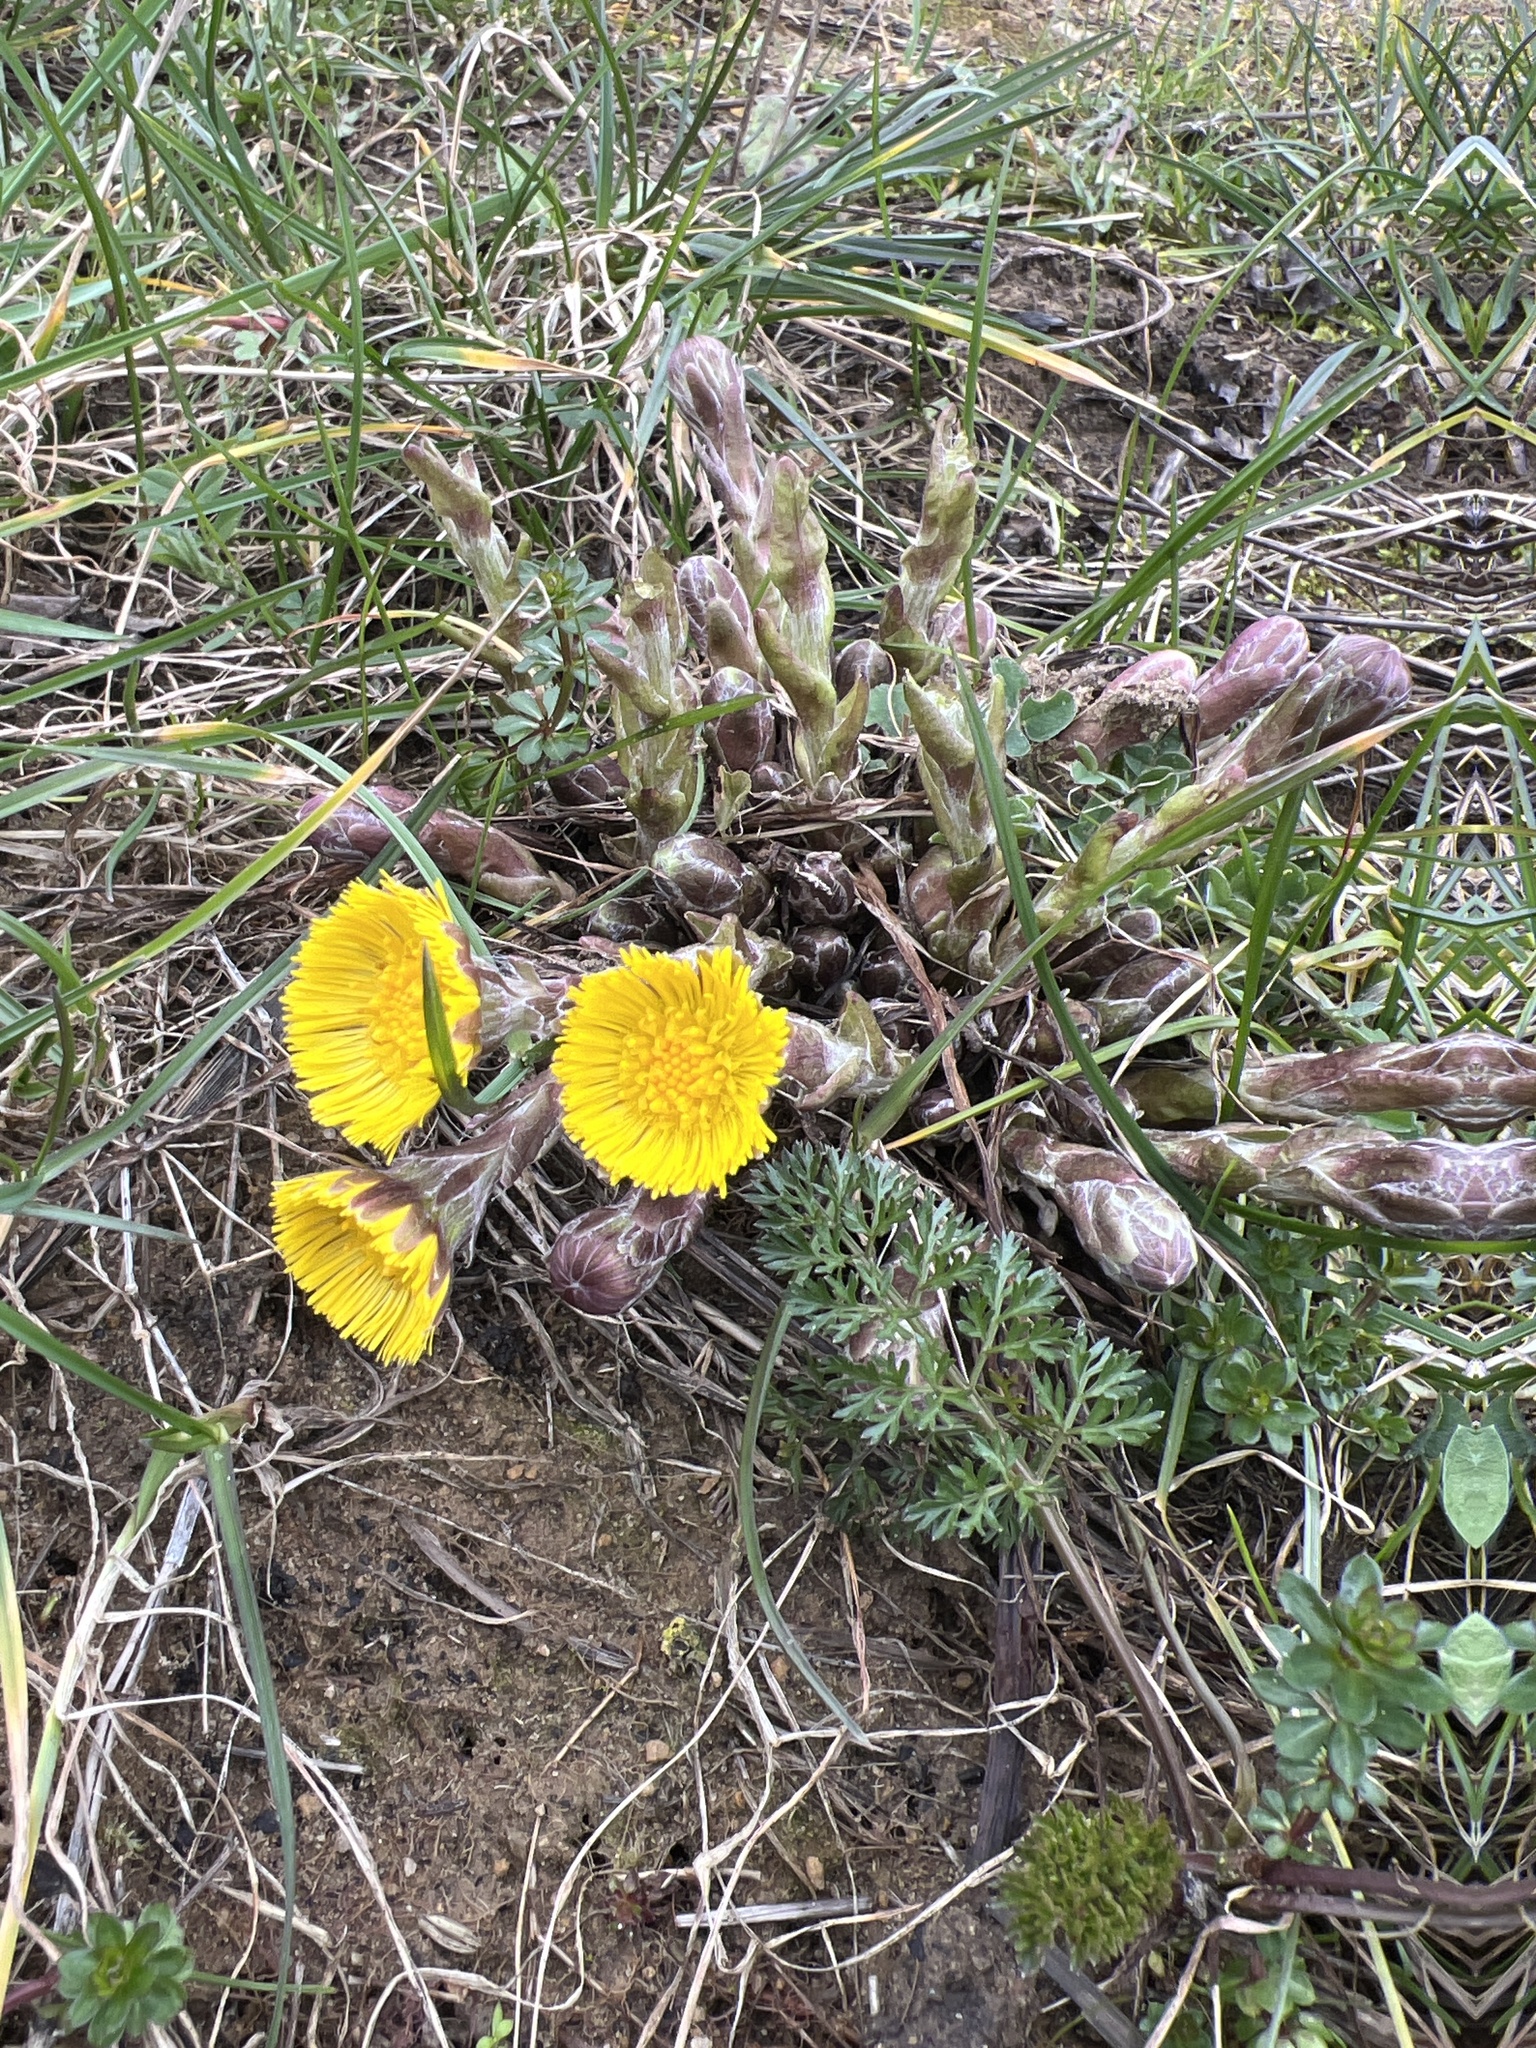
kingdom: Plantae
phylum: Tracheophyta
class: Magnoliopsida
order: Asterales
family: Asteraceae
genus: Tussilago
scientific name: Tussilago farfara
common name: Coltsfoot
